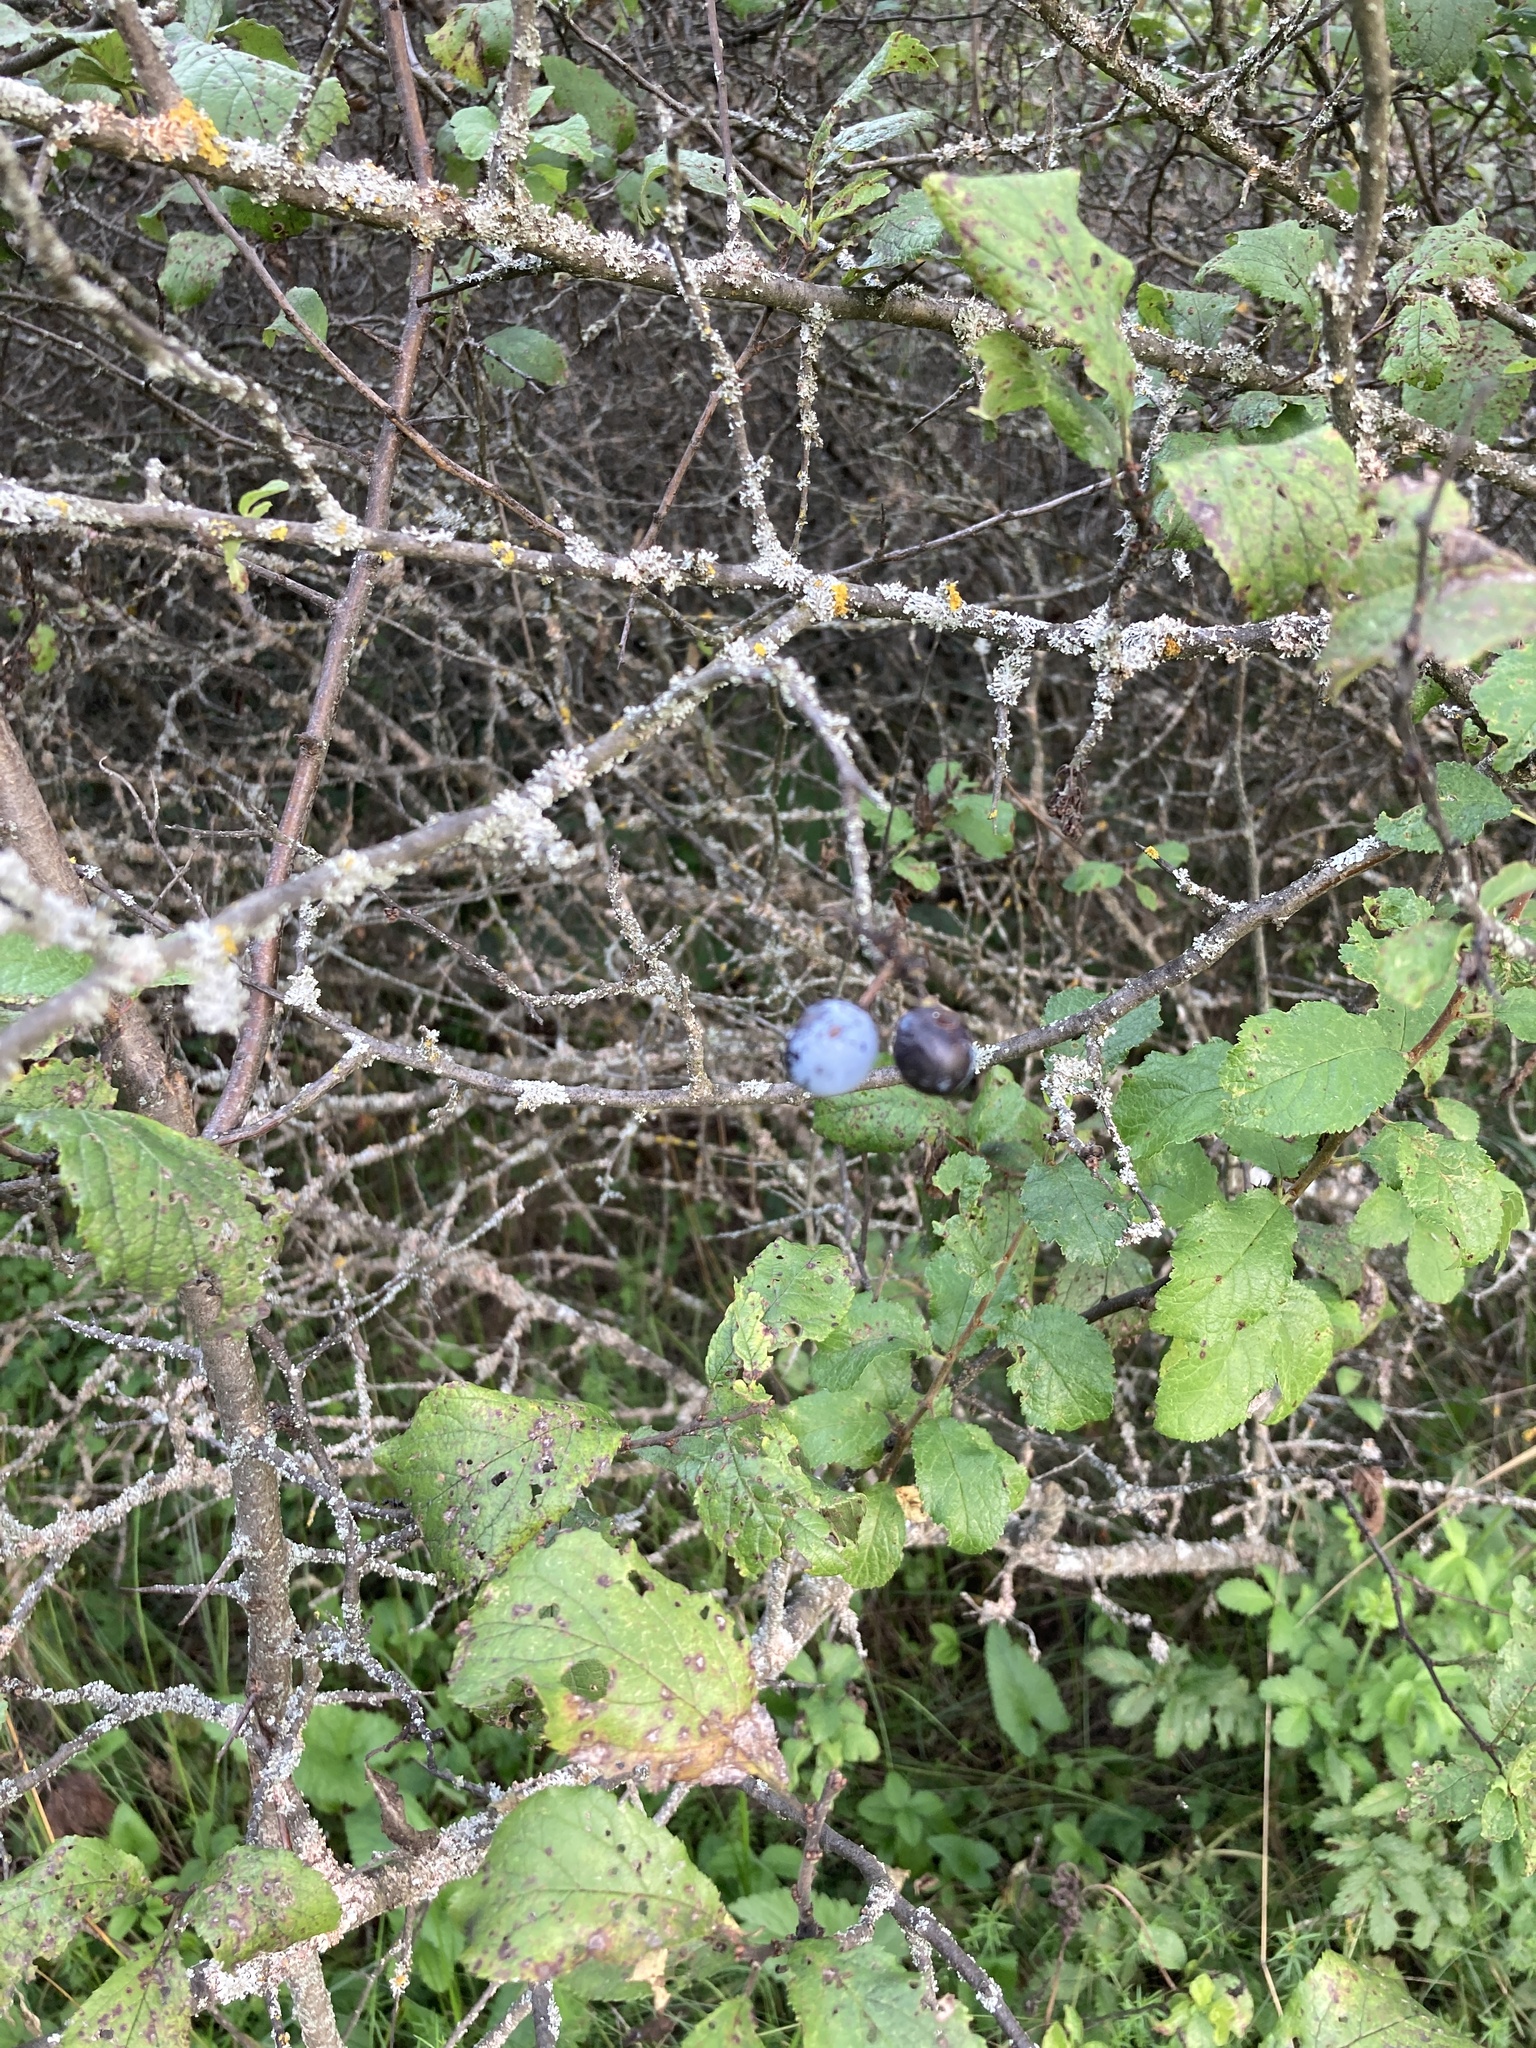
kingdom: Plantae
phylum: Tracheophyta
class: Magnoliopsida
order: Rosales
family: Rosaceae
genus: Prunus
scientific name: Prunus spinosa
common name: Blackthorn
